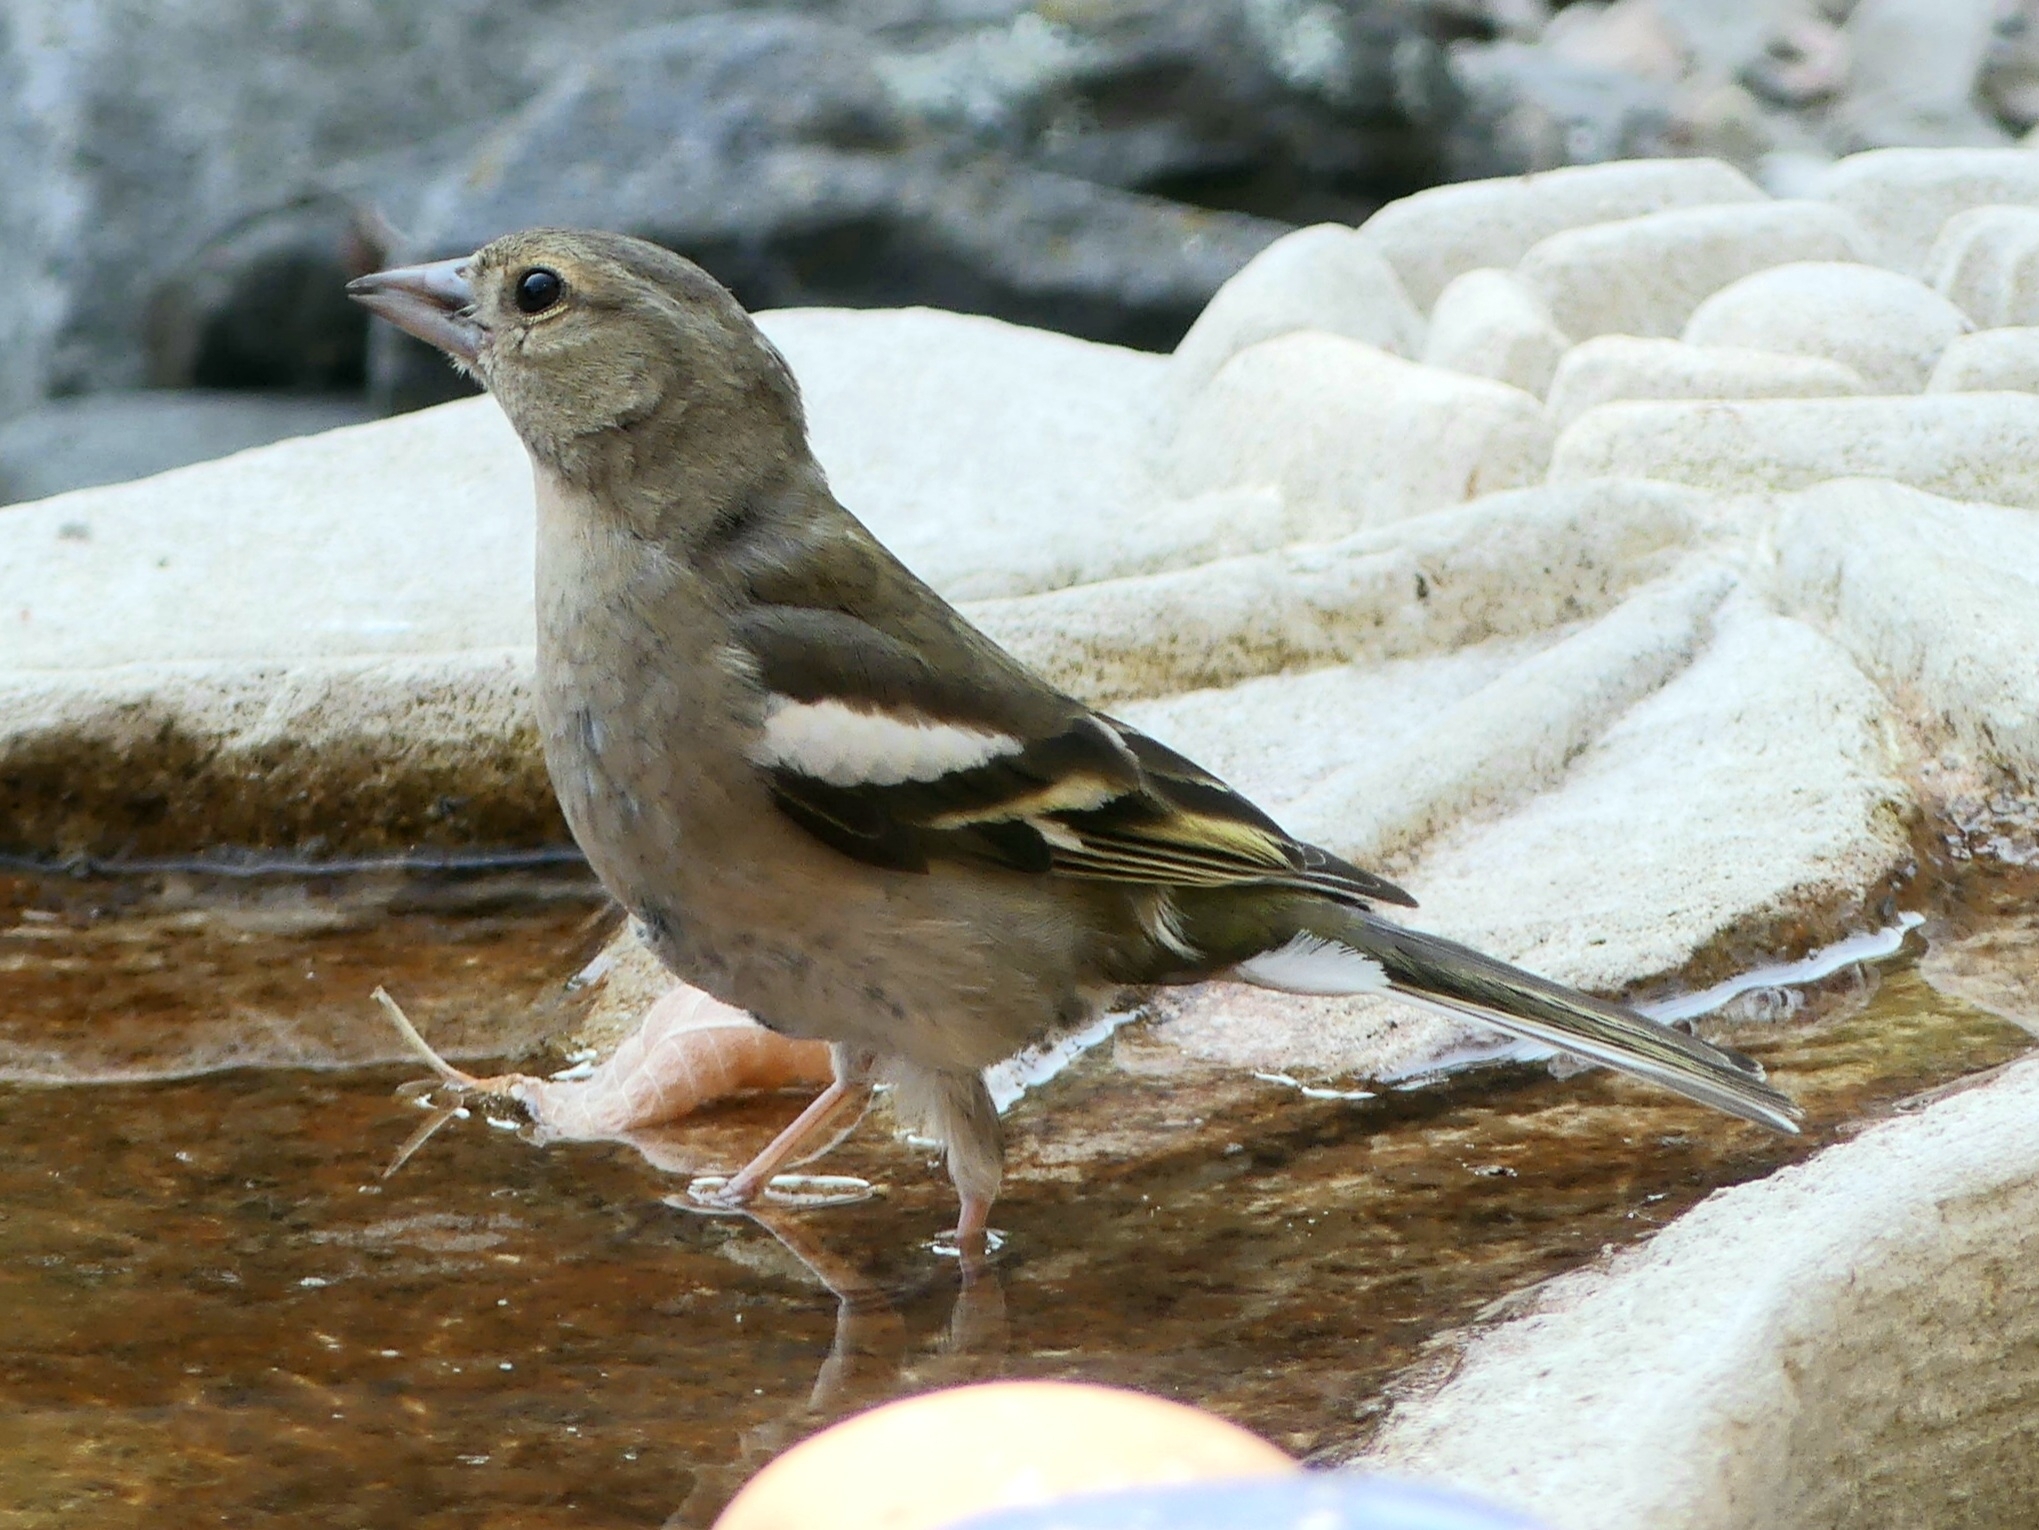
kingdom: Animalia
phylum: Chordata
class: Aves
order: Passeriformes
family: Fringillidae
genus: Fringilla
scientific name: Fringilla coelebs
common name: Common chaffinch
